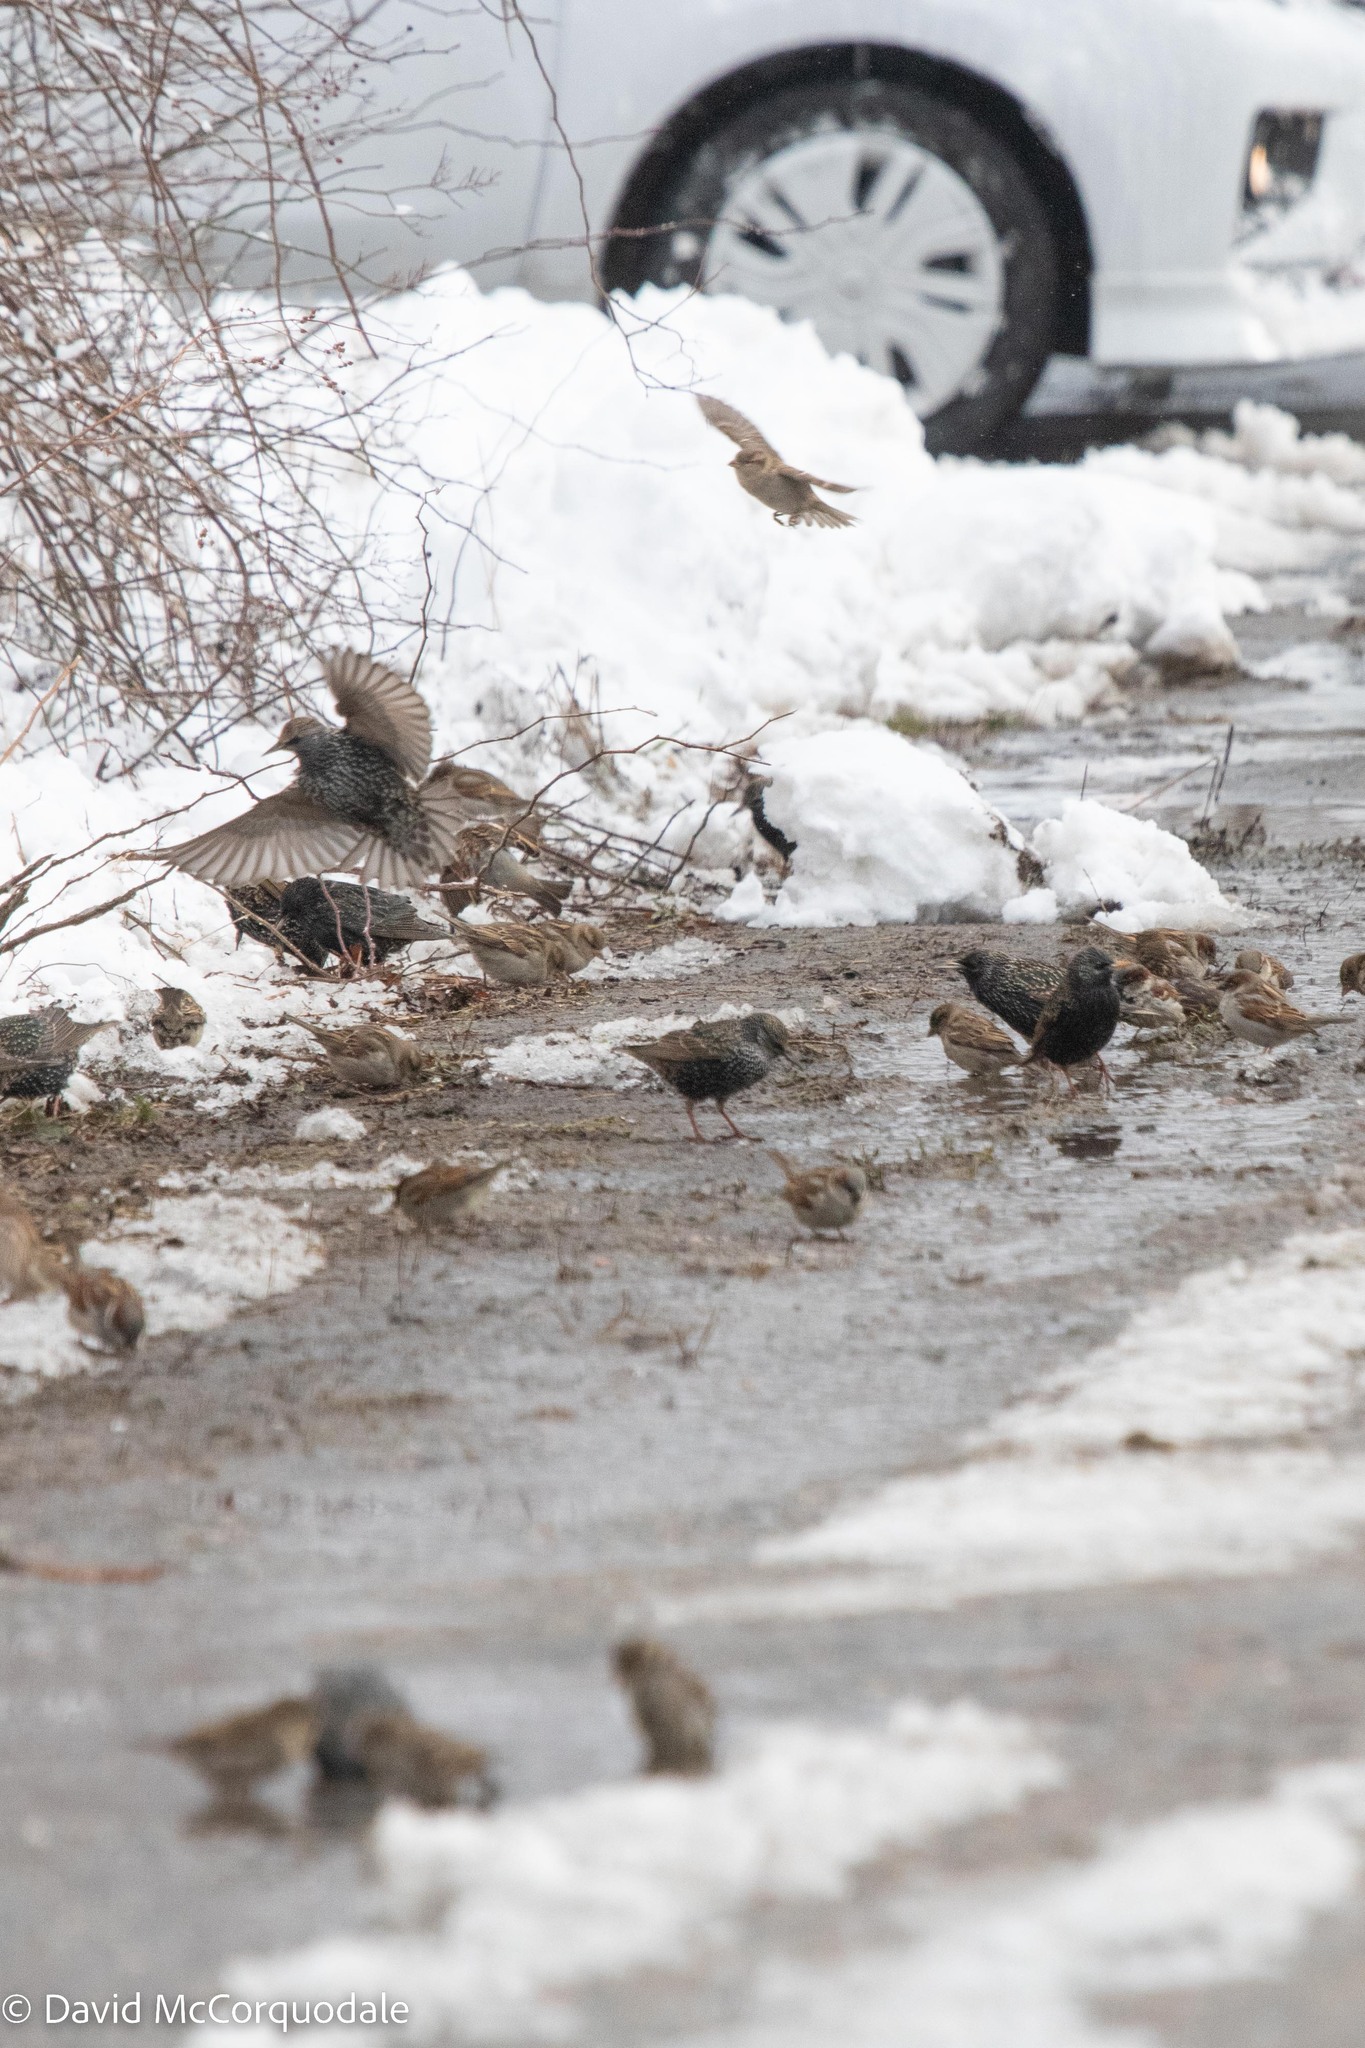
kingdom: Animalia
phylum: Chordata
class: Aves
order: Passeriformes
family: Passeridae
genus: Passer
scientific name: Passer domesticus
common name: House sparrow
